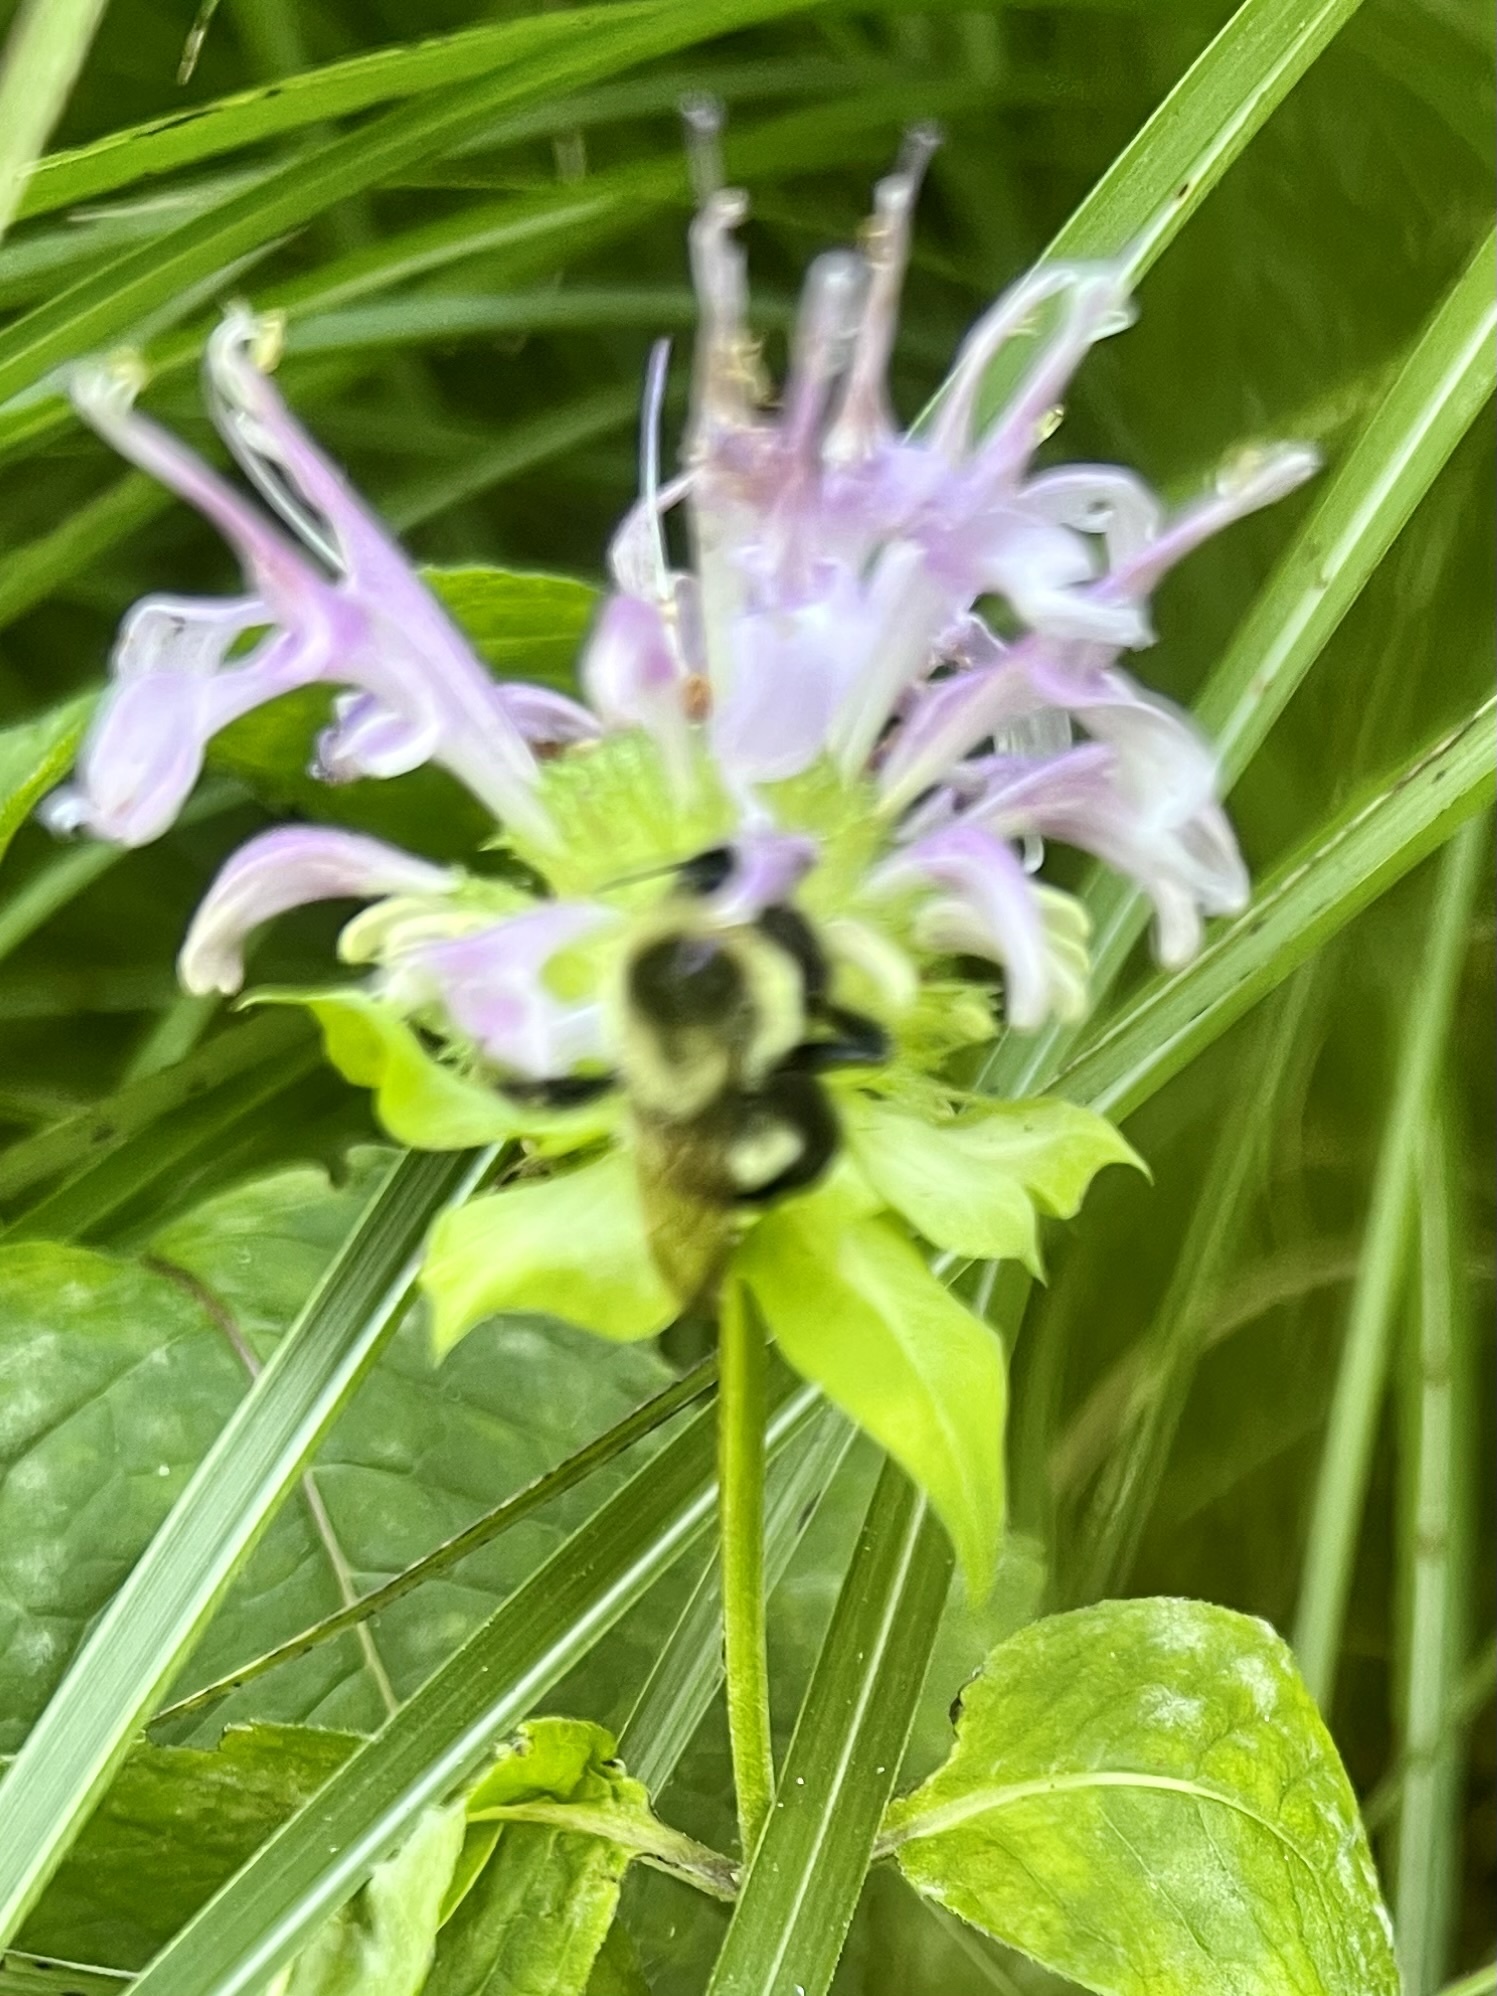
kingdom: Animalia
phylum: Arthropoda
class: Insecta
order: Hymenoptera
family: Apidae
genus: Bombus
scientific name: Bombus impatiens
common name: Common eastern bumble bee
